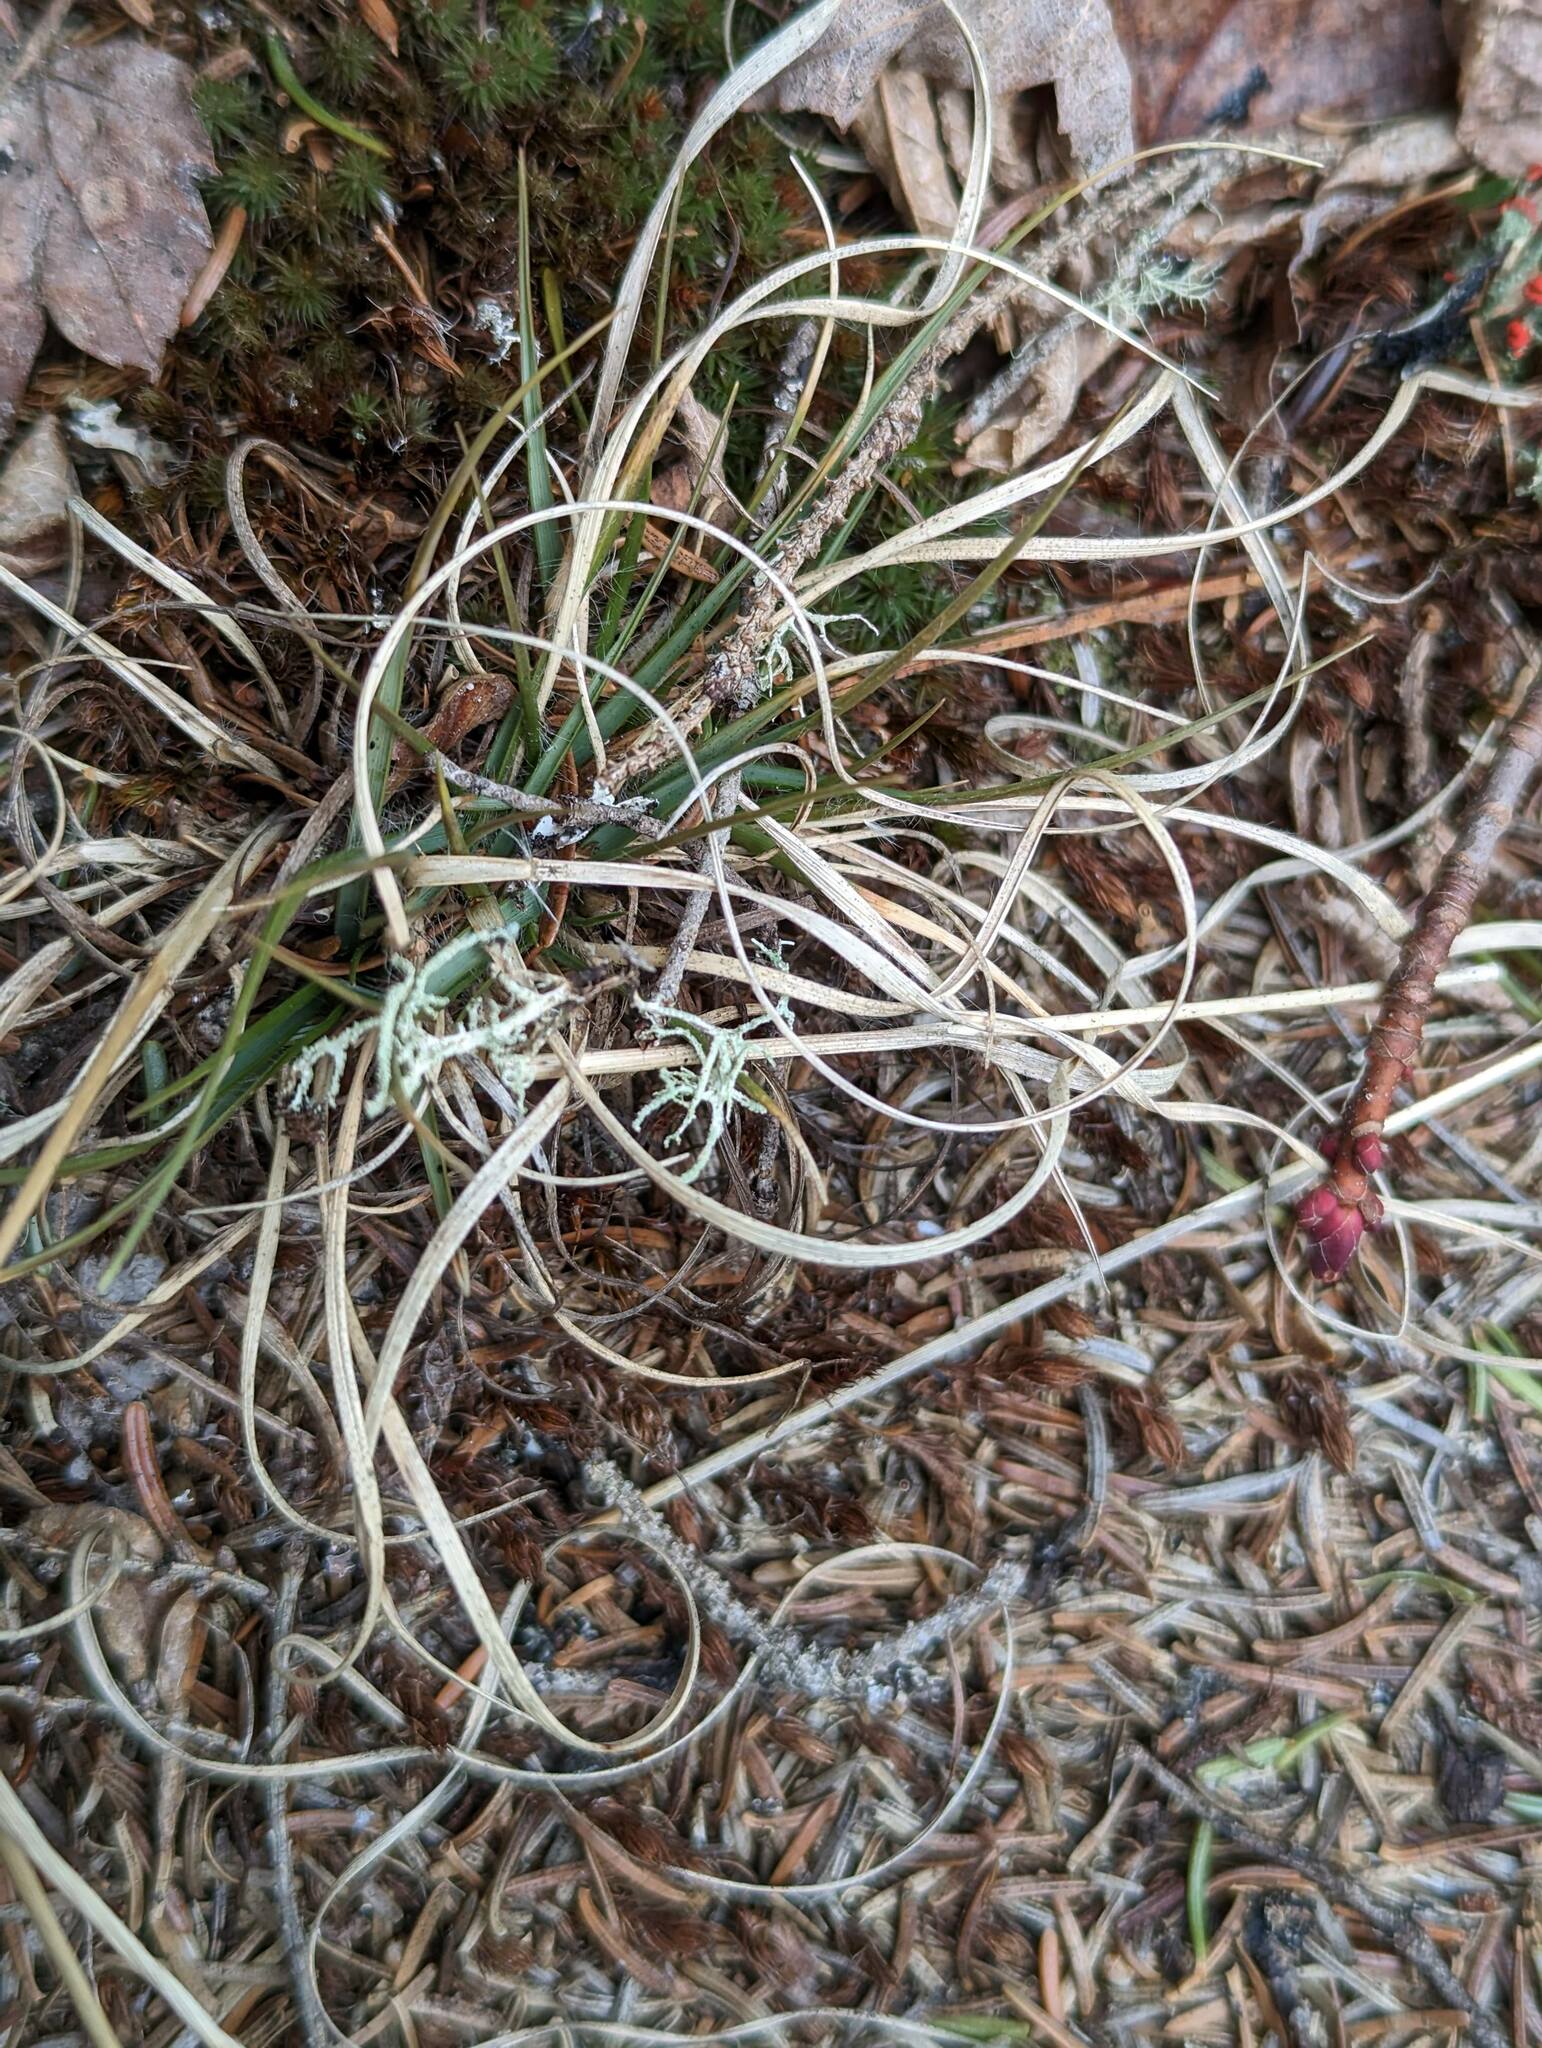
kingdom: Plantae
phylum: Tracheophyta
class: Liliopsida
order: Poales
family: Poaceae
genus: Danthonia
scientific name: Danthonia spicata
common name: Common wild oatgrass
